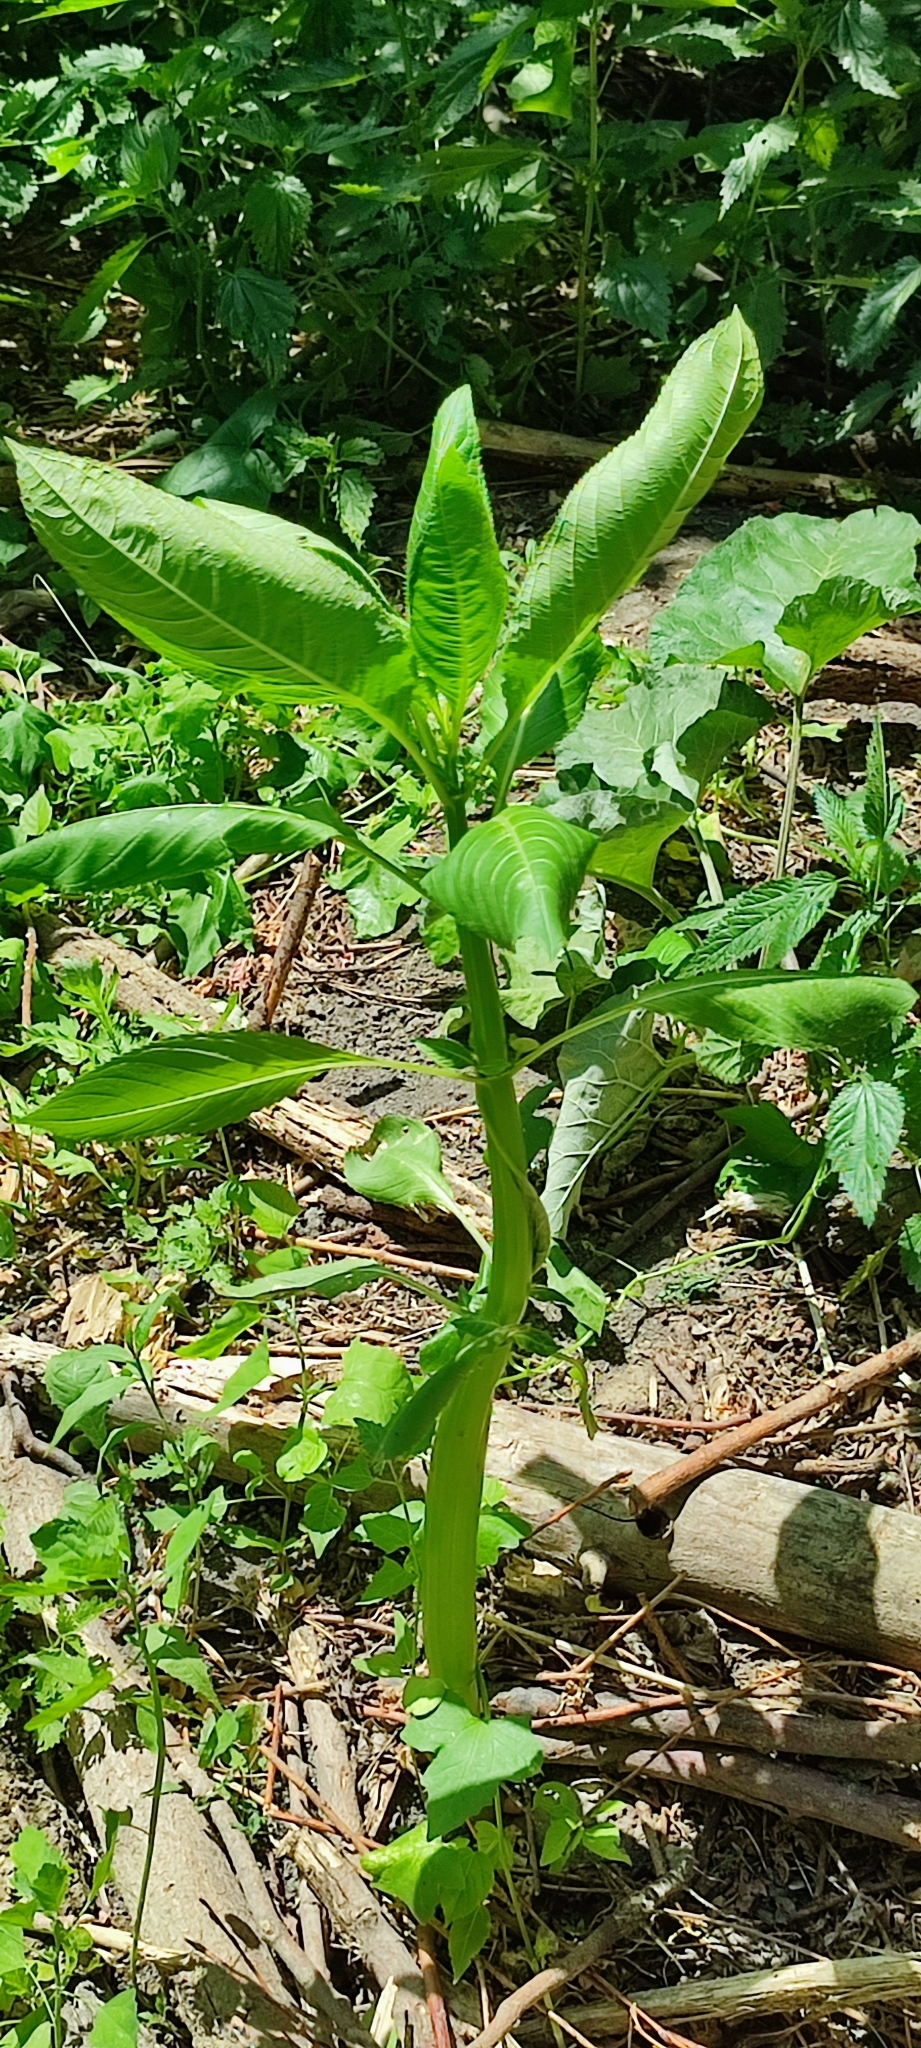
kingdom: Plantae
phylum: Tracheophyta
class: Magnoliopsida
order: Ericales
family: Balsaminaceae
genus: Impatiens
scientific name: Impatiens glandulifera
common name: Himalayan balsam
